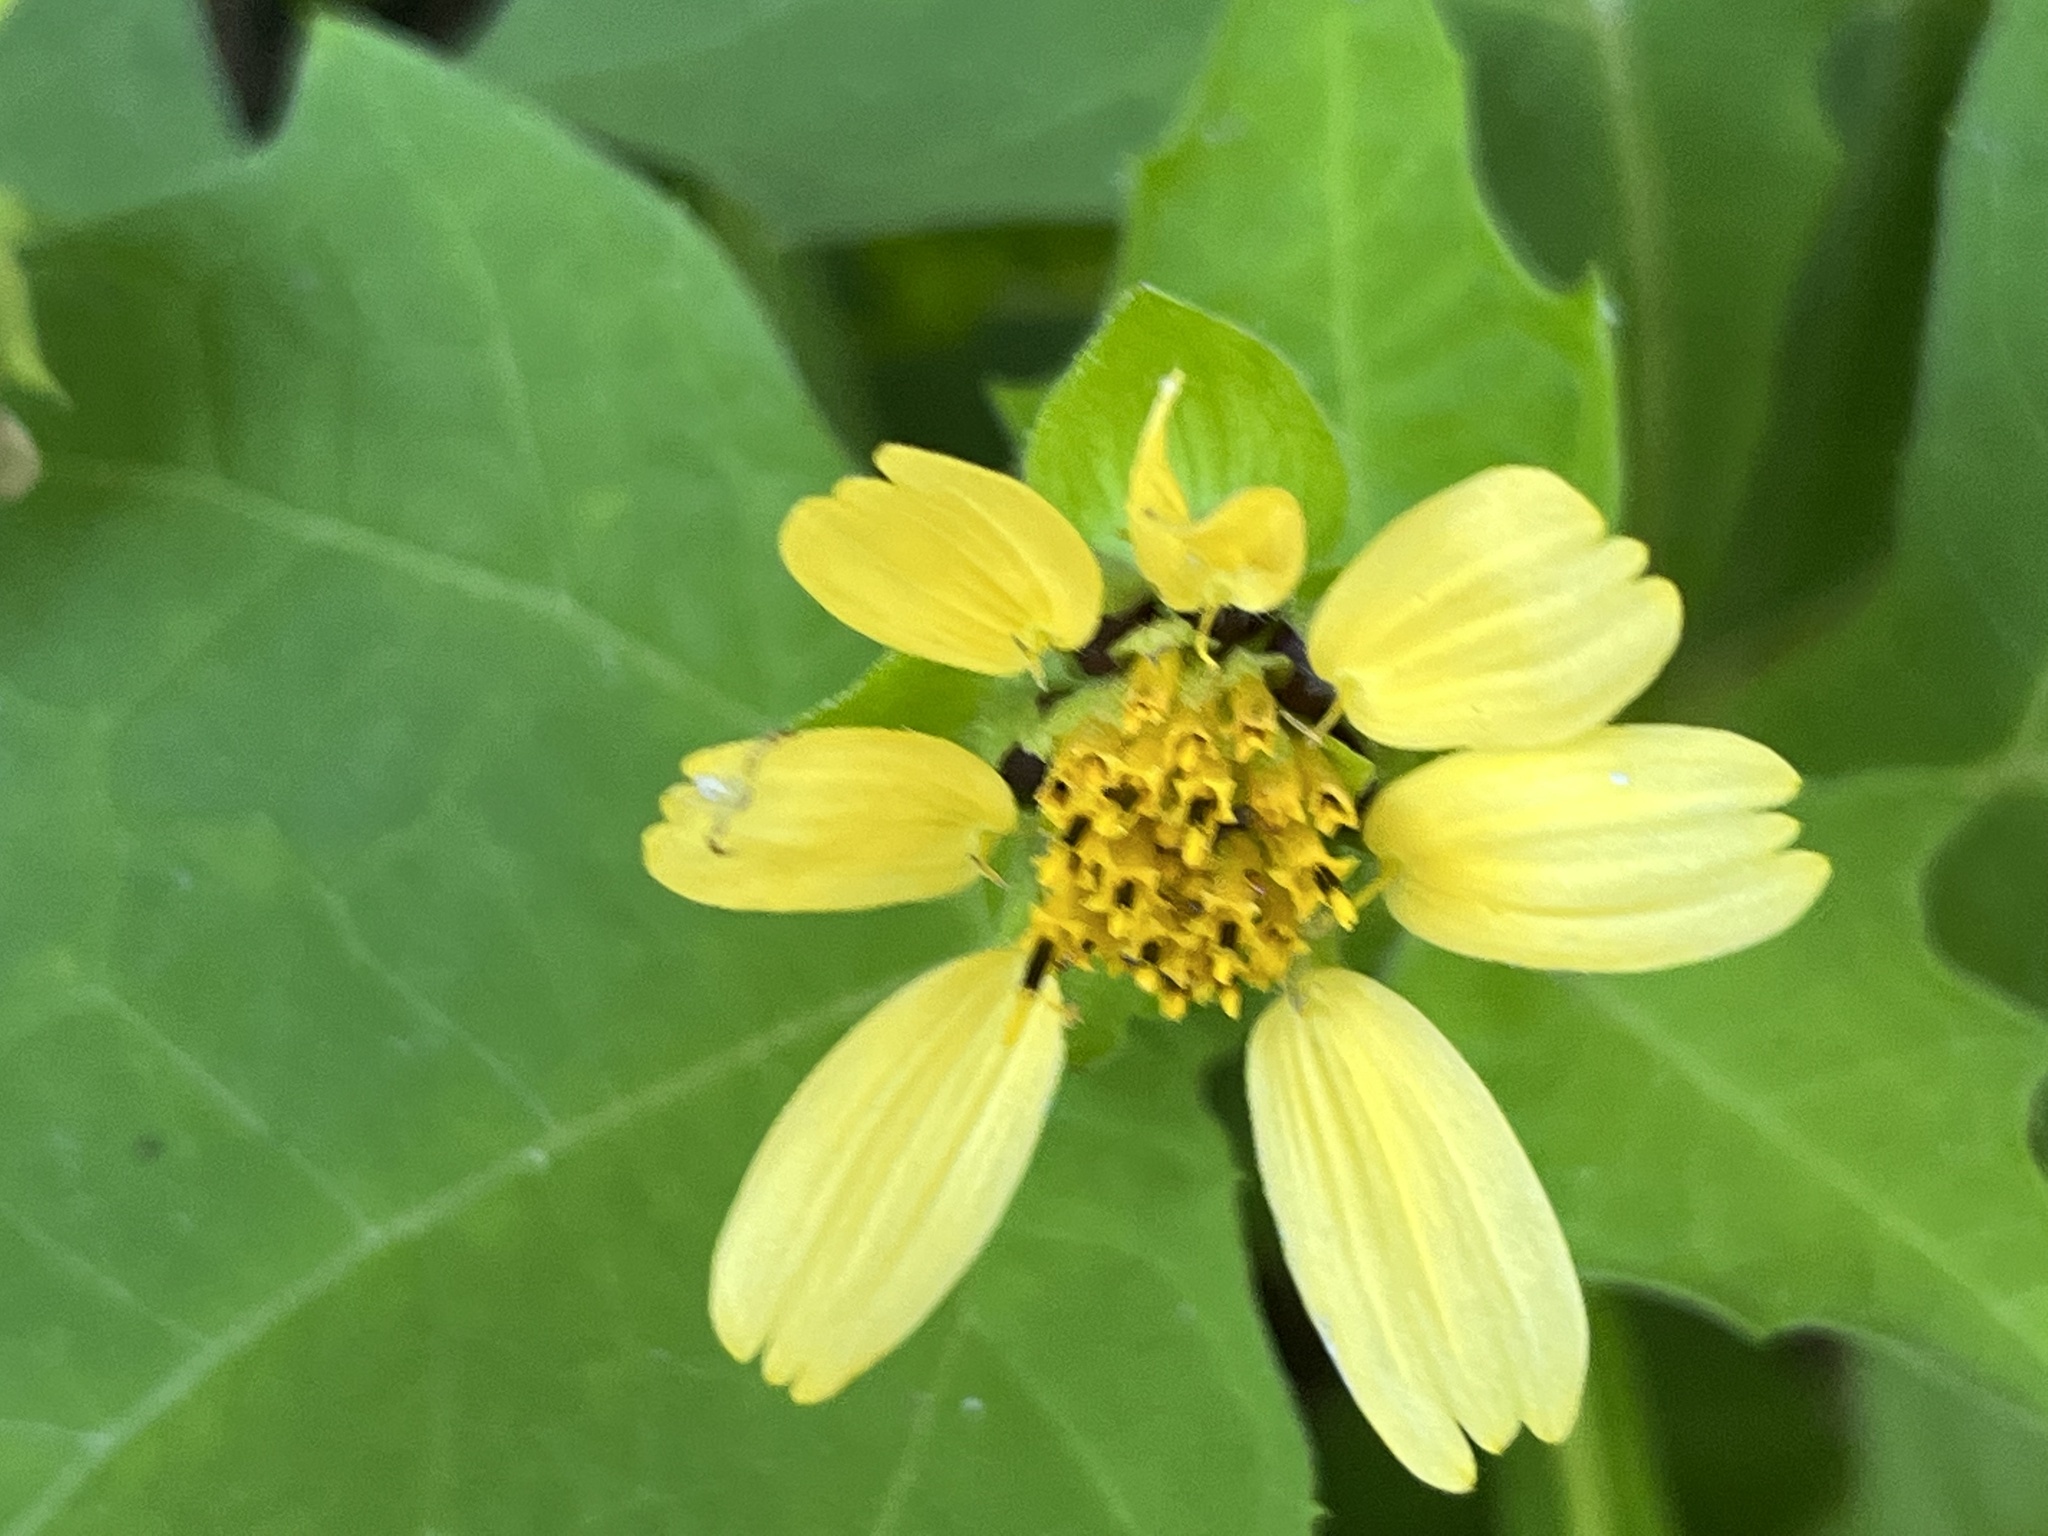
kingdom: Plantae
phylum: Tracheophyta
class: Magnoliopsida
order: Asterales
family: Asteraceae
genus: Smallanthus
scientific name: Smallanthus uvedalia
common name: Bear's-foot
